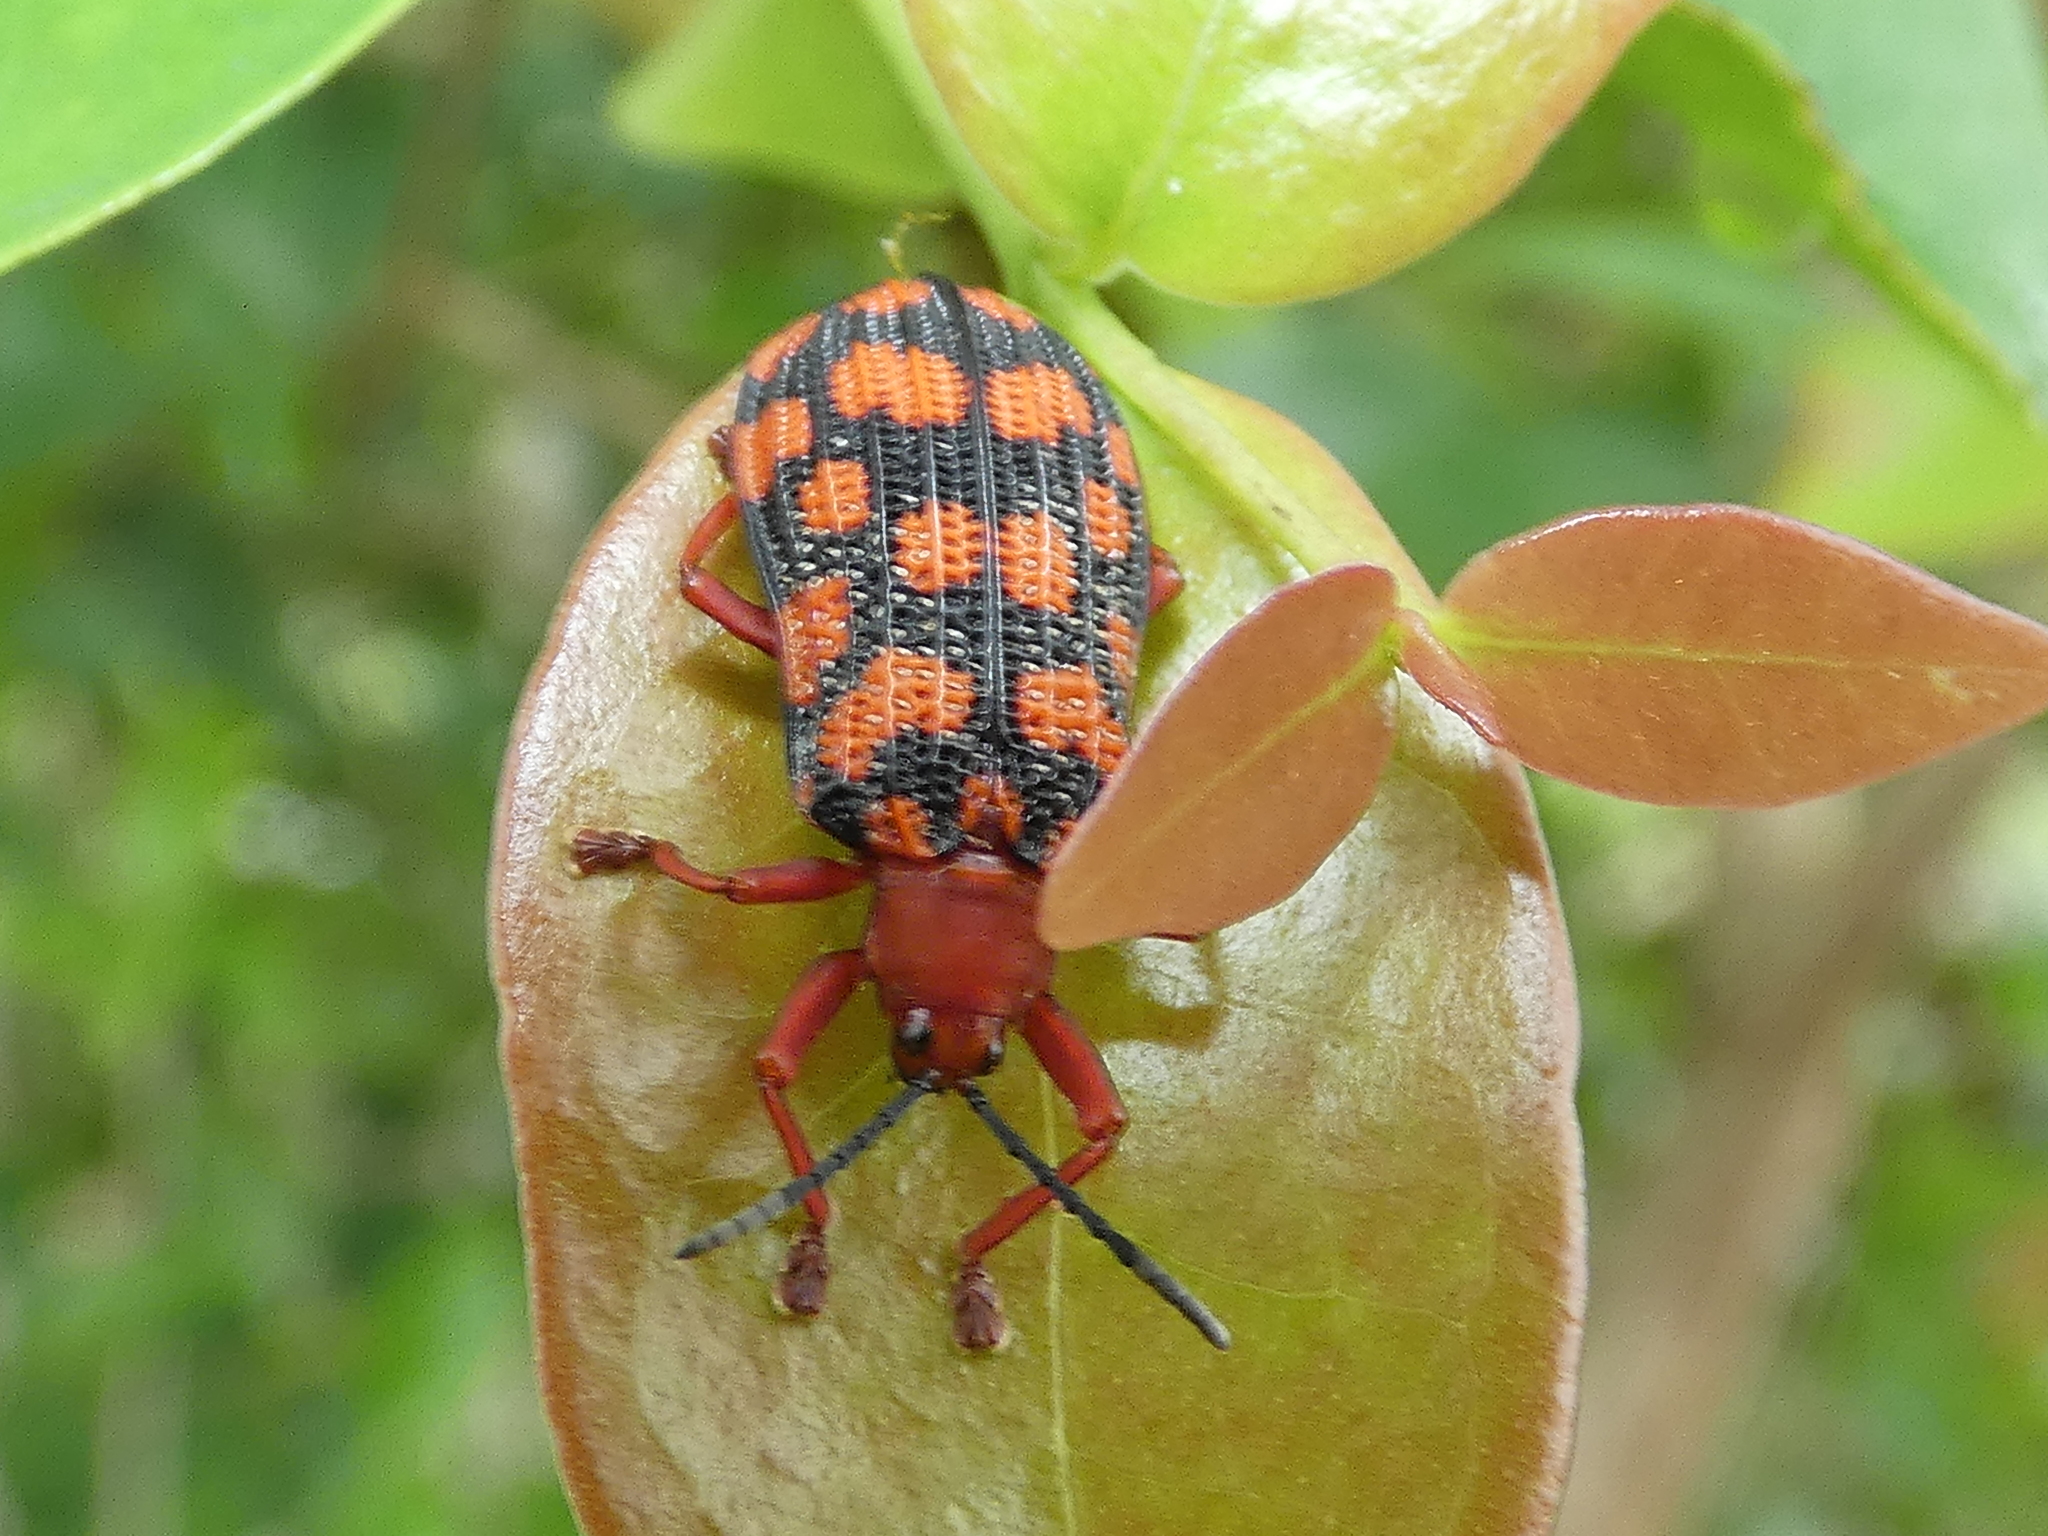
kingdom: Animalia
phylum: Arthropoda
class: Insecta
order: Coleoptera
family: Chrysomelidae
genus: Sceloenopla
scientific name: Sceloenopla maculata
